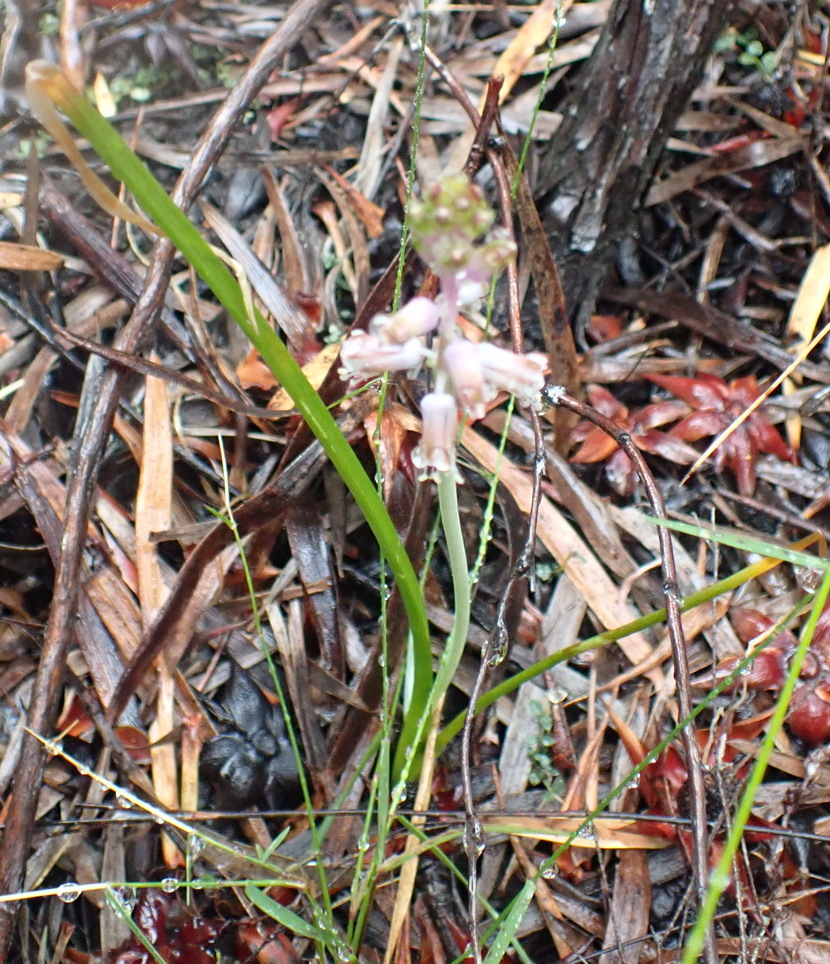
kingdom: Plantae
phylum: Tracheophyta
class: Liliopsida
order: Asparagales
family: Asparagaceae
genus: Lachenalia
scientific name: Lachenalia youngii
